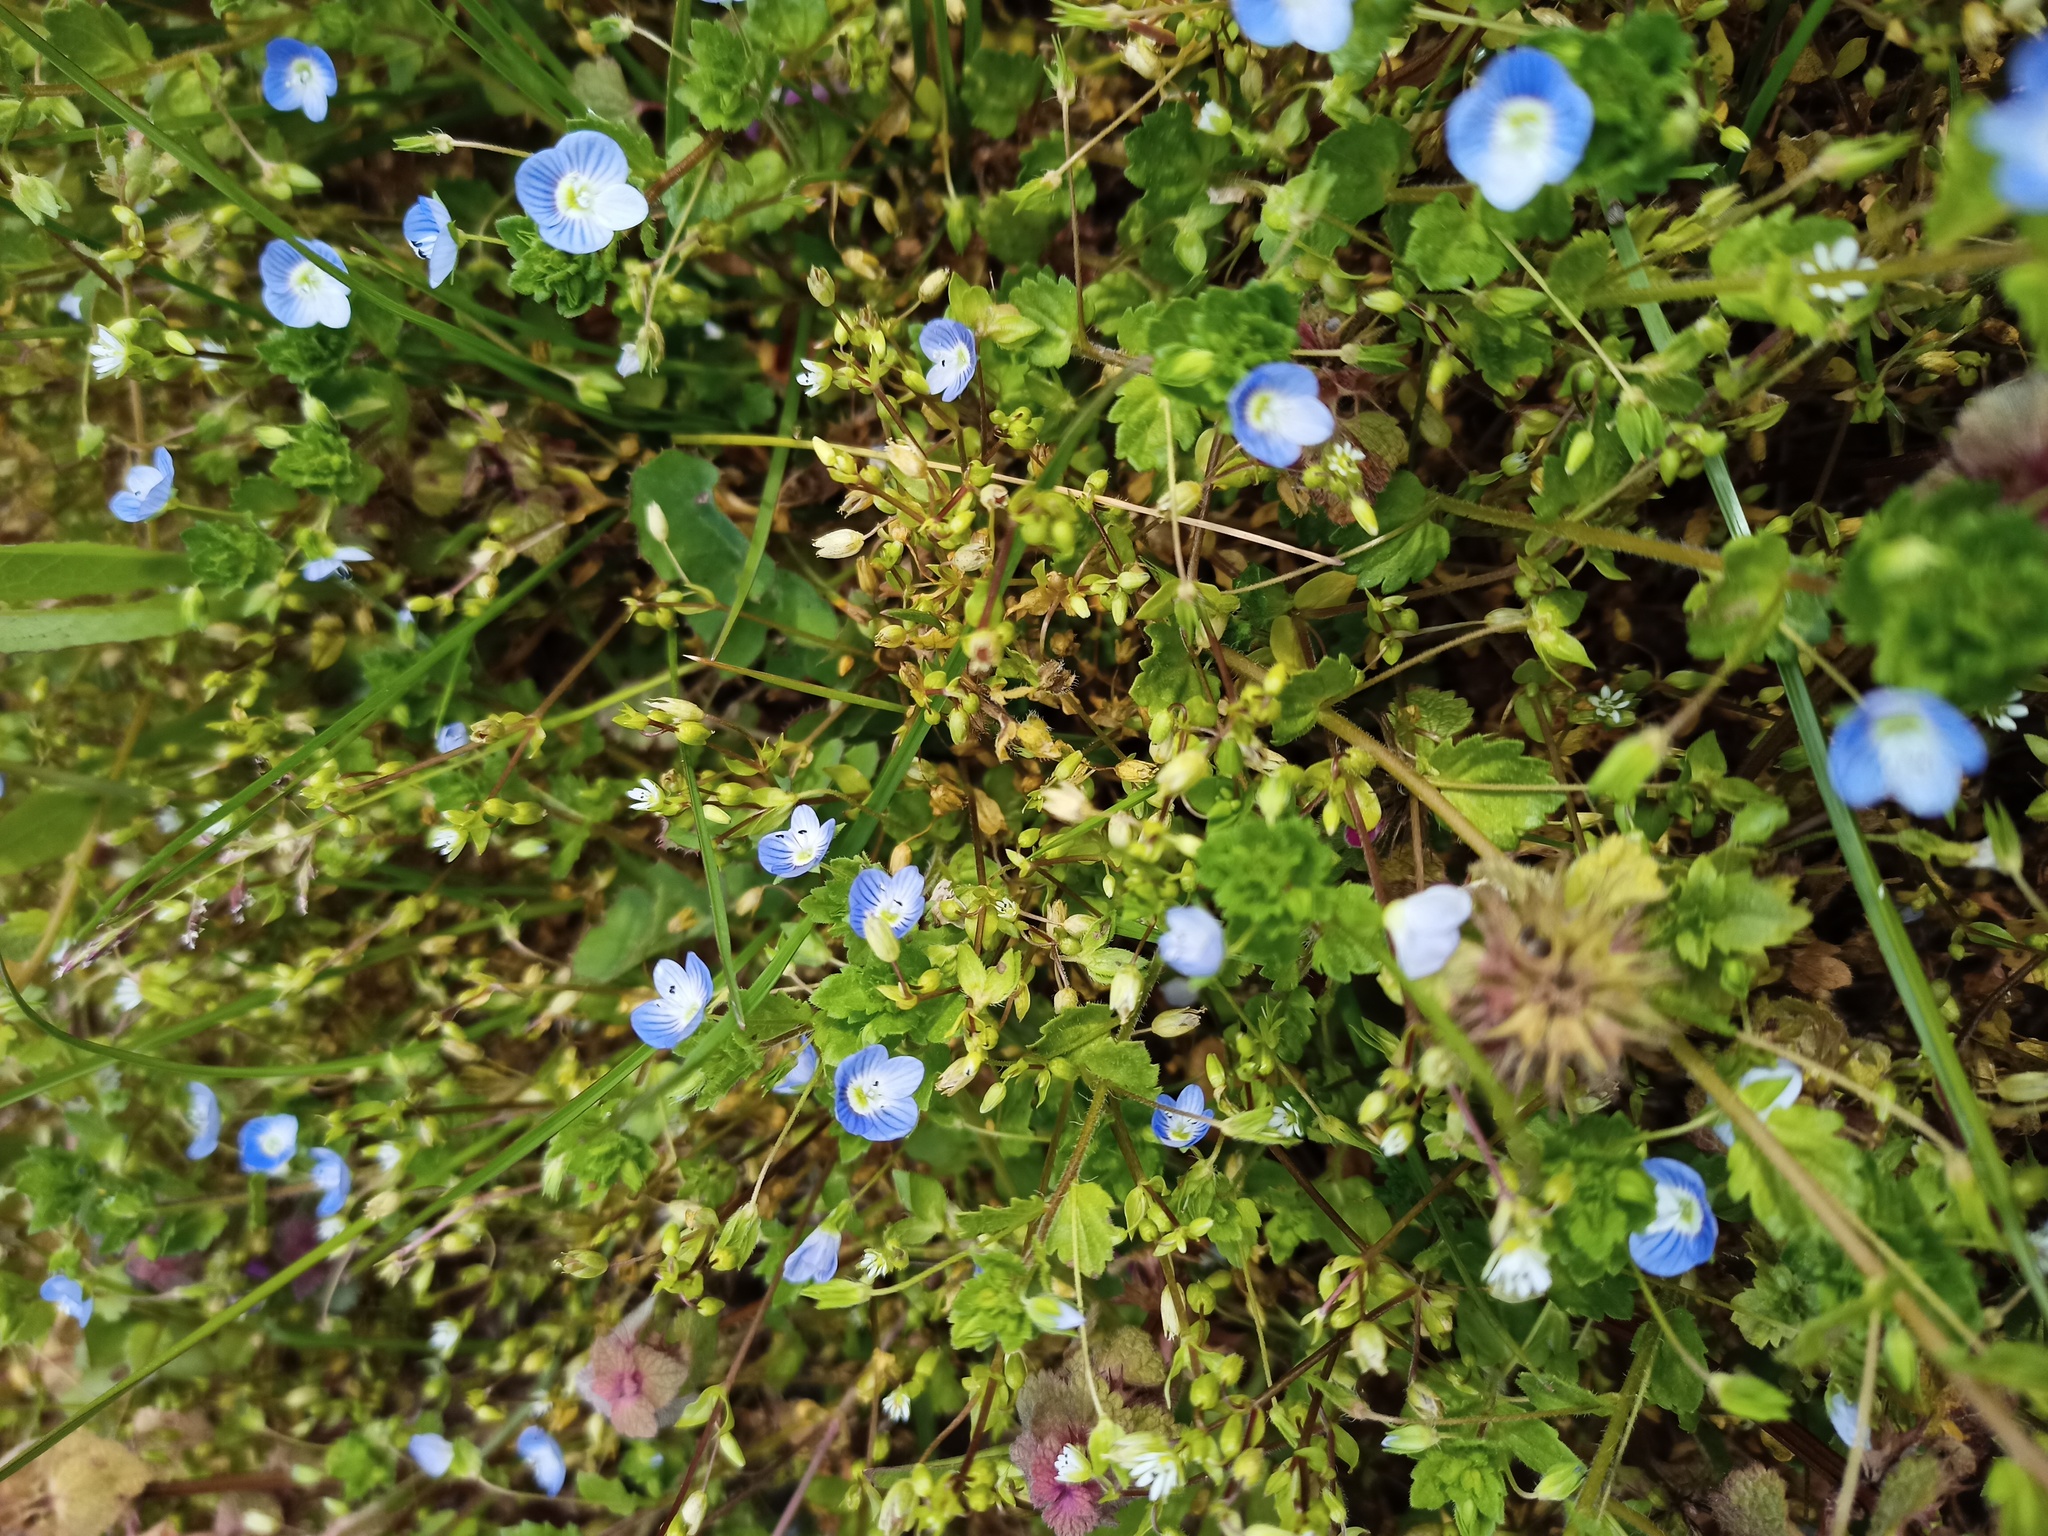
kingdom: Plantae
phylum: Tracheophyta
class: Magnoliopsida
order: Lamiales
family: Plantaginaceae
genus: Veronica
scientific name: Veronica persica
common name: Common field-speedwell
